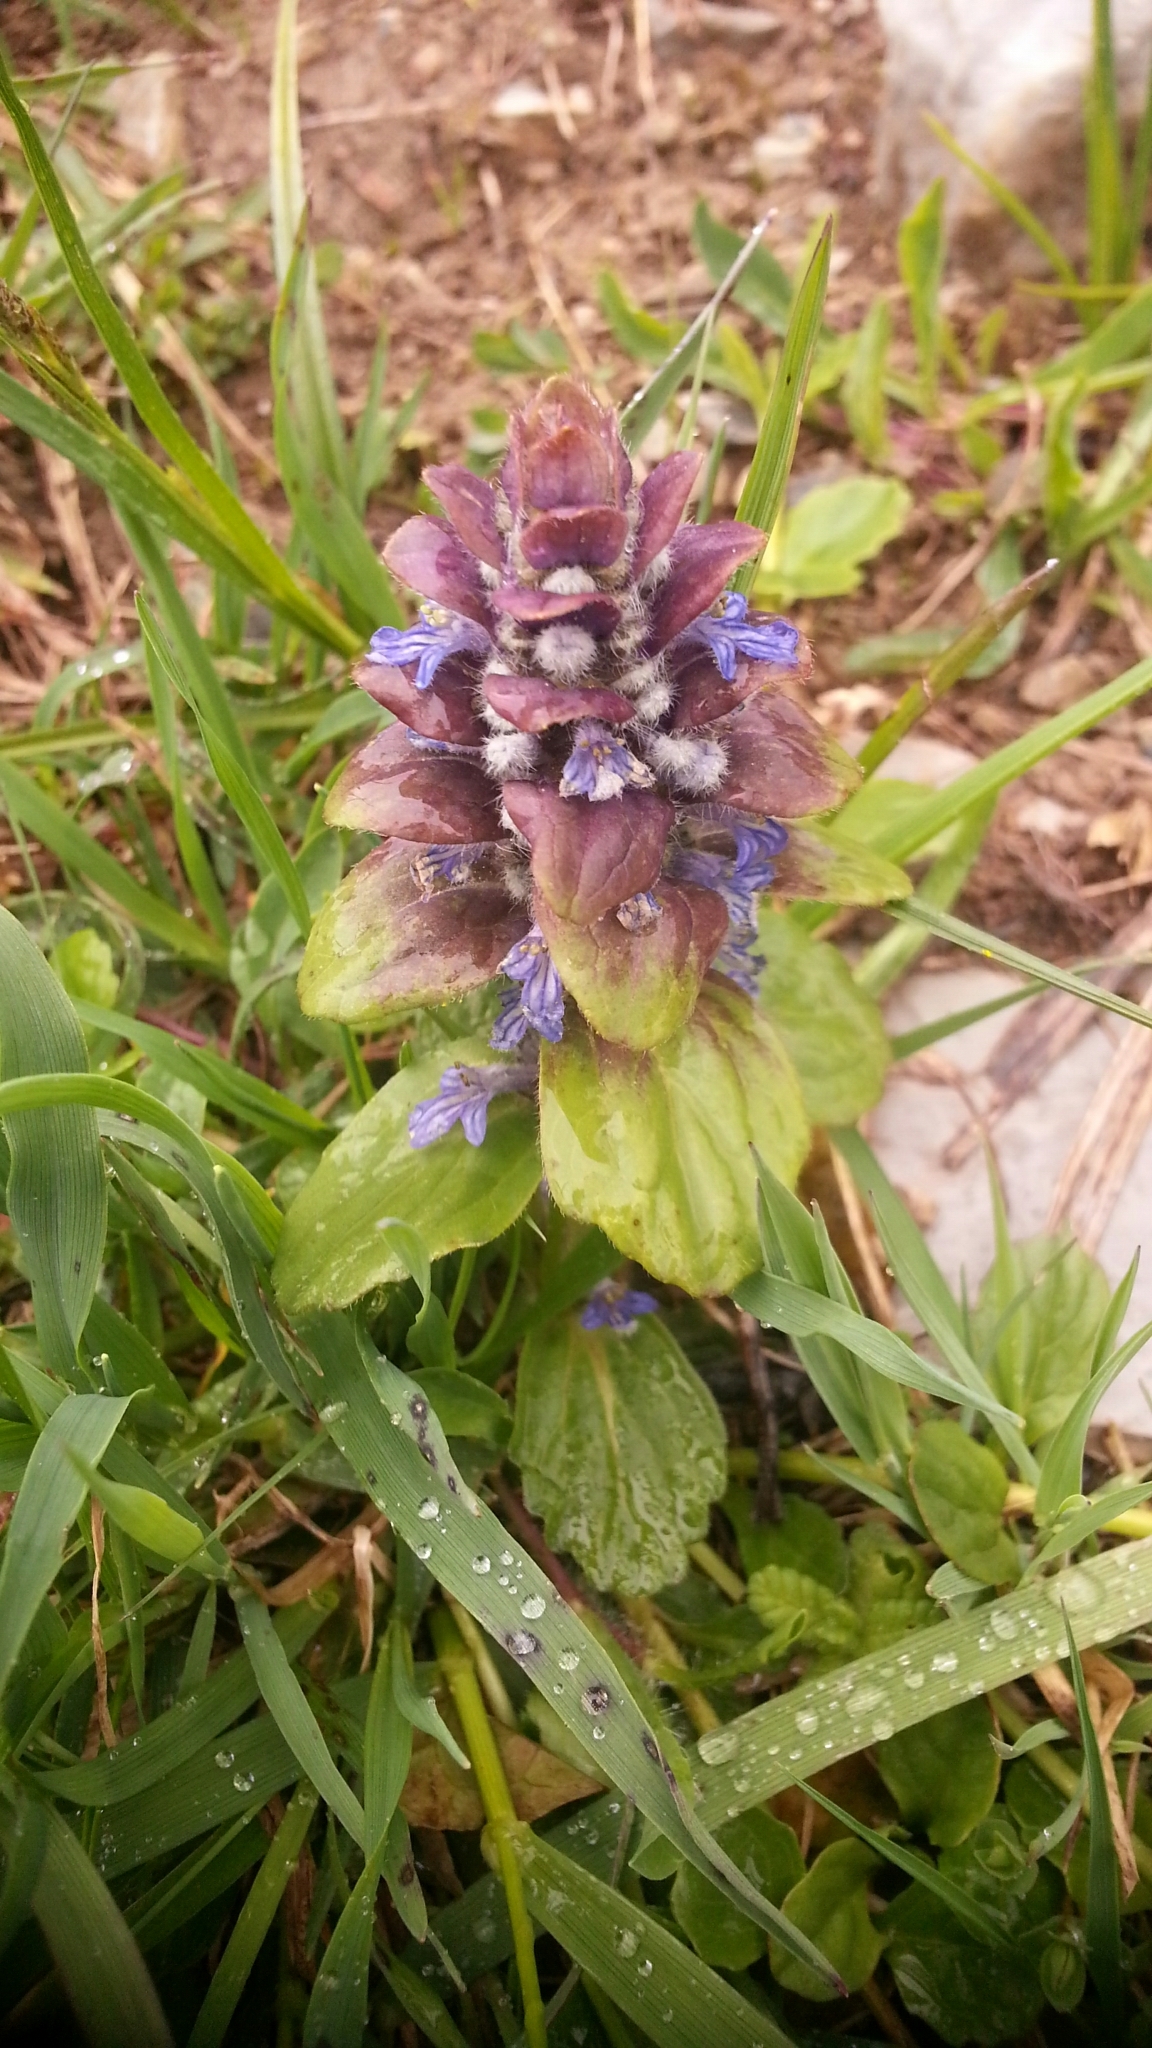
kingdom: Plantae
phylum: Tracheophyta
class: Magnoliopsida
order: Lamiales
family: Lamiaceae
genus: Ajuga
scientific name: Ajuga pyramidalis
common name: Pyramid bugle
